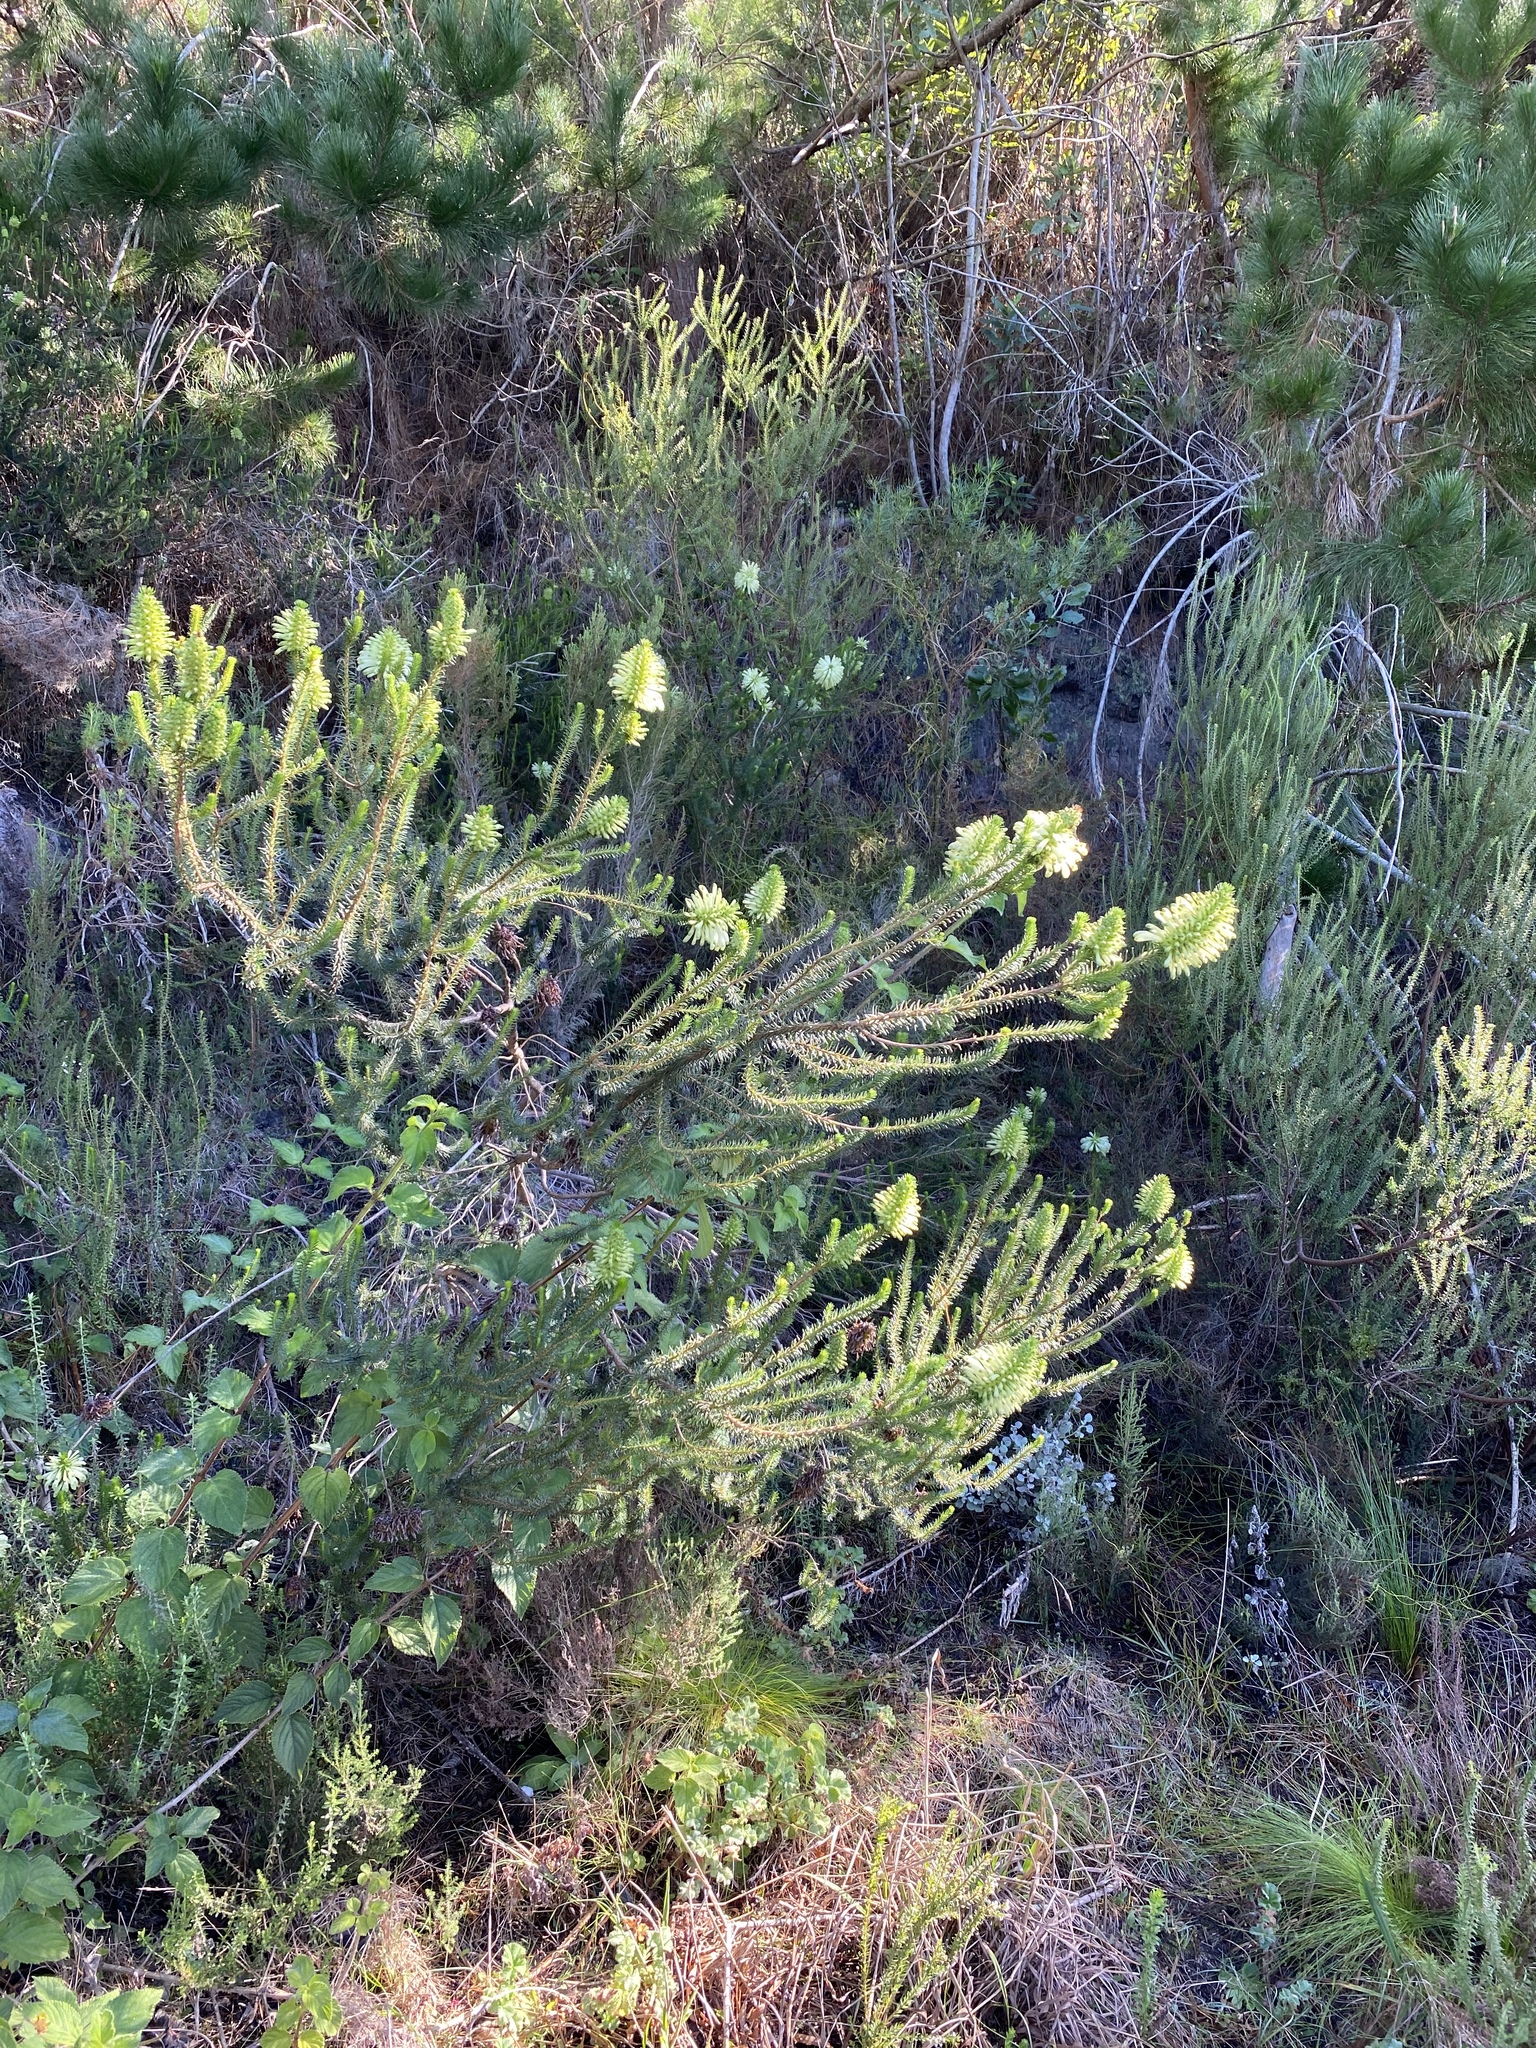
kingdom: Plantae
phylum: Tracheophyta
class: Magnoliopsida
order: Ericales
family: Ericaceae
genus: Erica
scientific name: Erica sessiliflora
